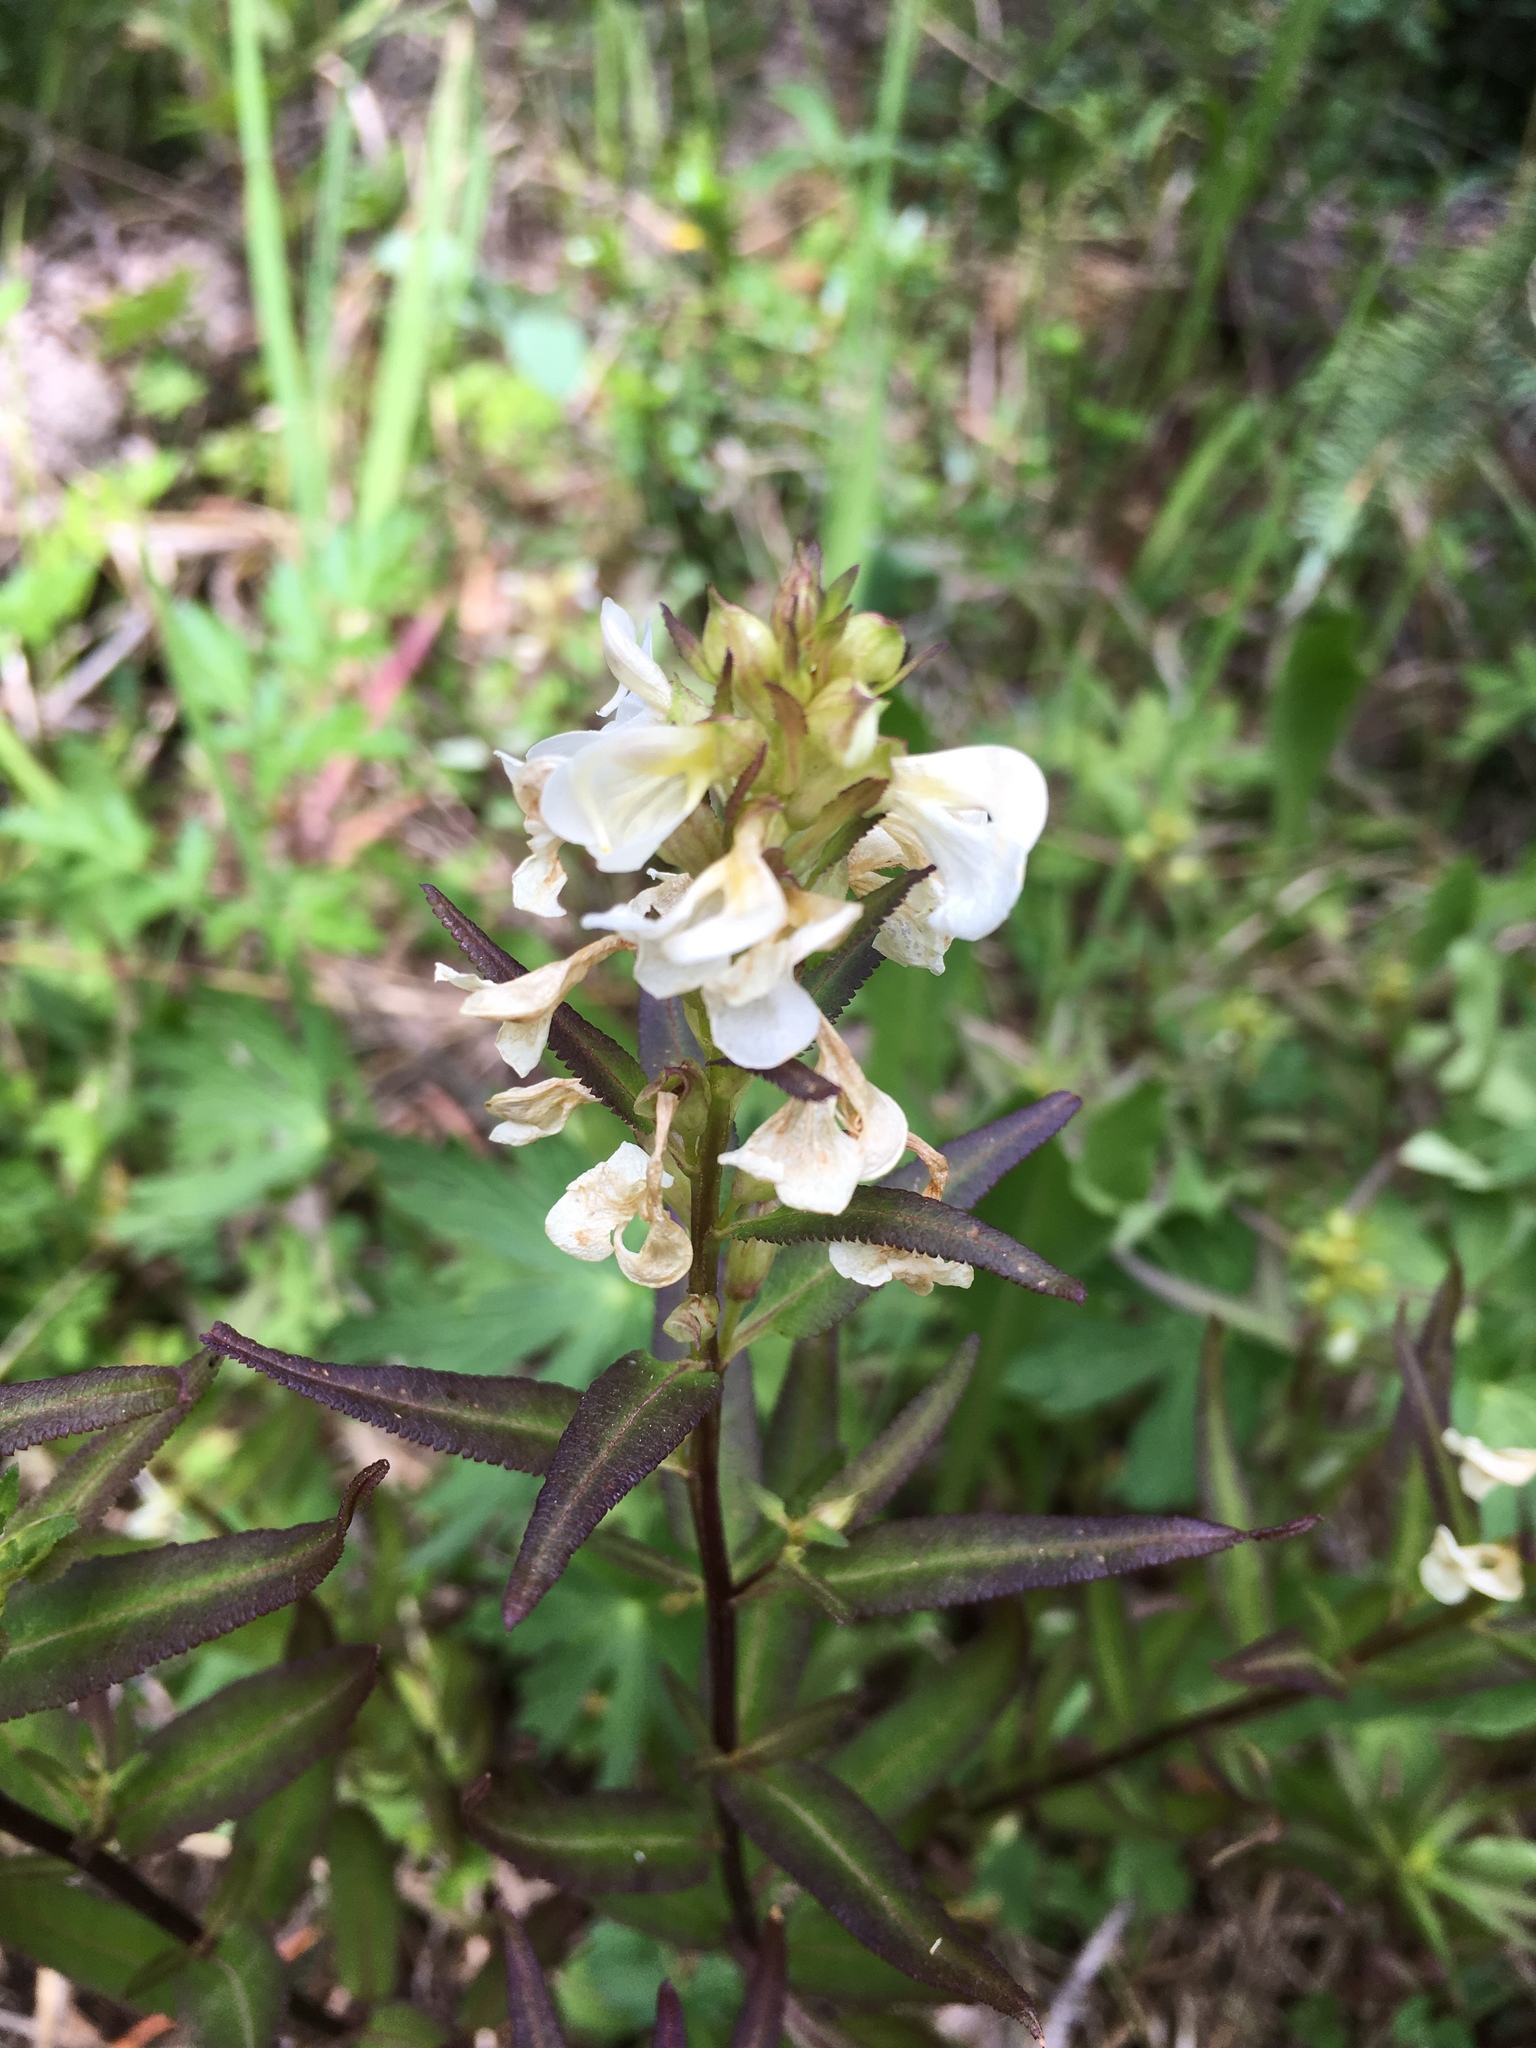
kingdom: Plantae
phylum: Tracheophyta
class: Magnoliopsida
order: Lamiales
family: Orobanchaceae
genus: Pedicularis
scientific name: Pedicularis racemosa
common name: Leafy lousewort
